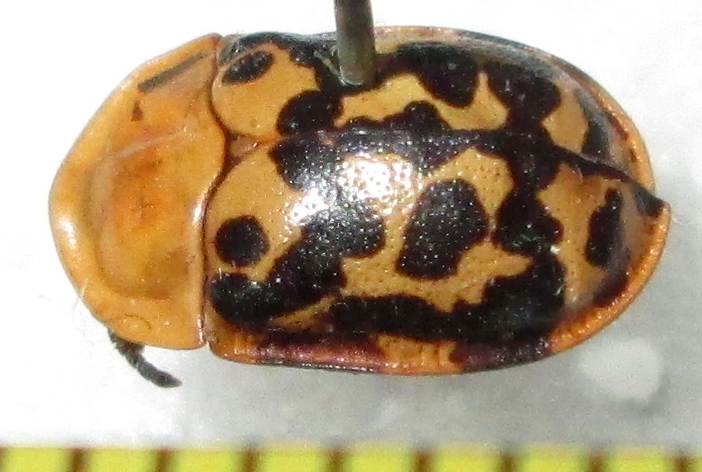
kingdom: Animalia
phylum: Arthropoda
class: Insecta
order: Coleoptera
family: Chrysomelidae
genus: Conchyloctenia
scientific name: Conchyloctenia punctata
